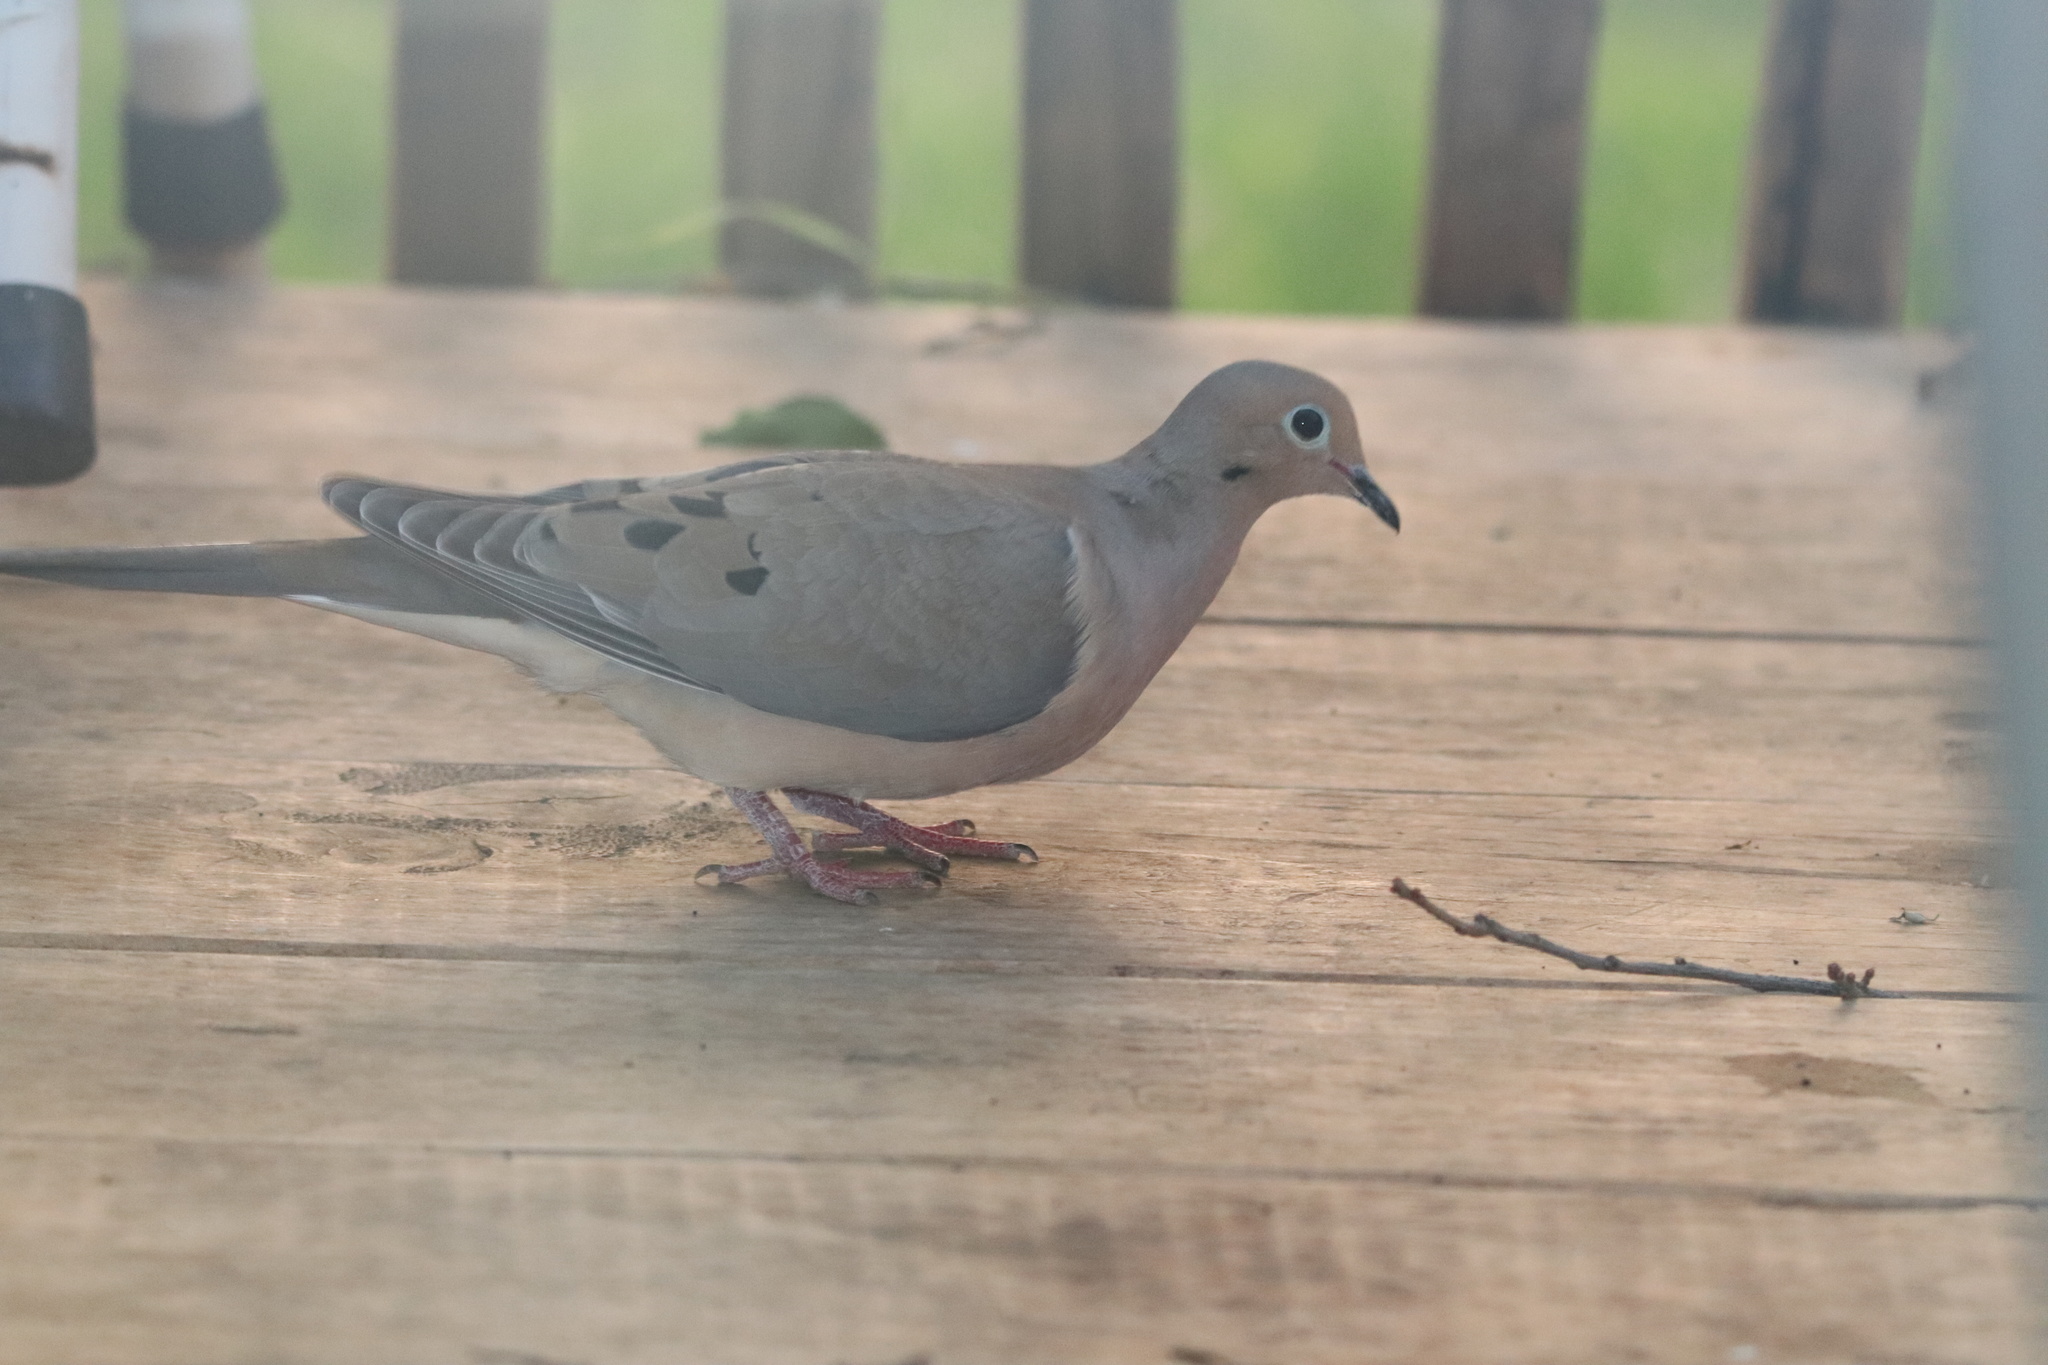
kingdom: Animalia
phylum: Chordata
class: Aves
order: Columbiformes
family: Columbidae
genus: Zenaida
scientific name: Zenaida macroura
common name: Mourning dove
